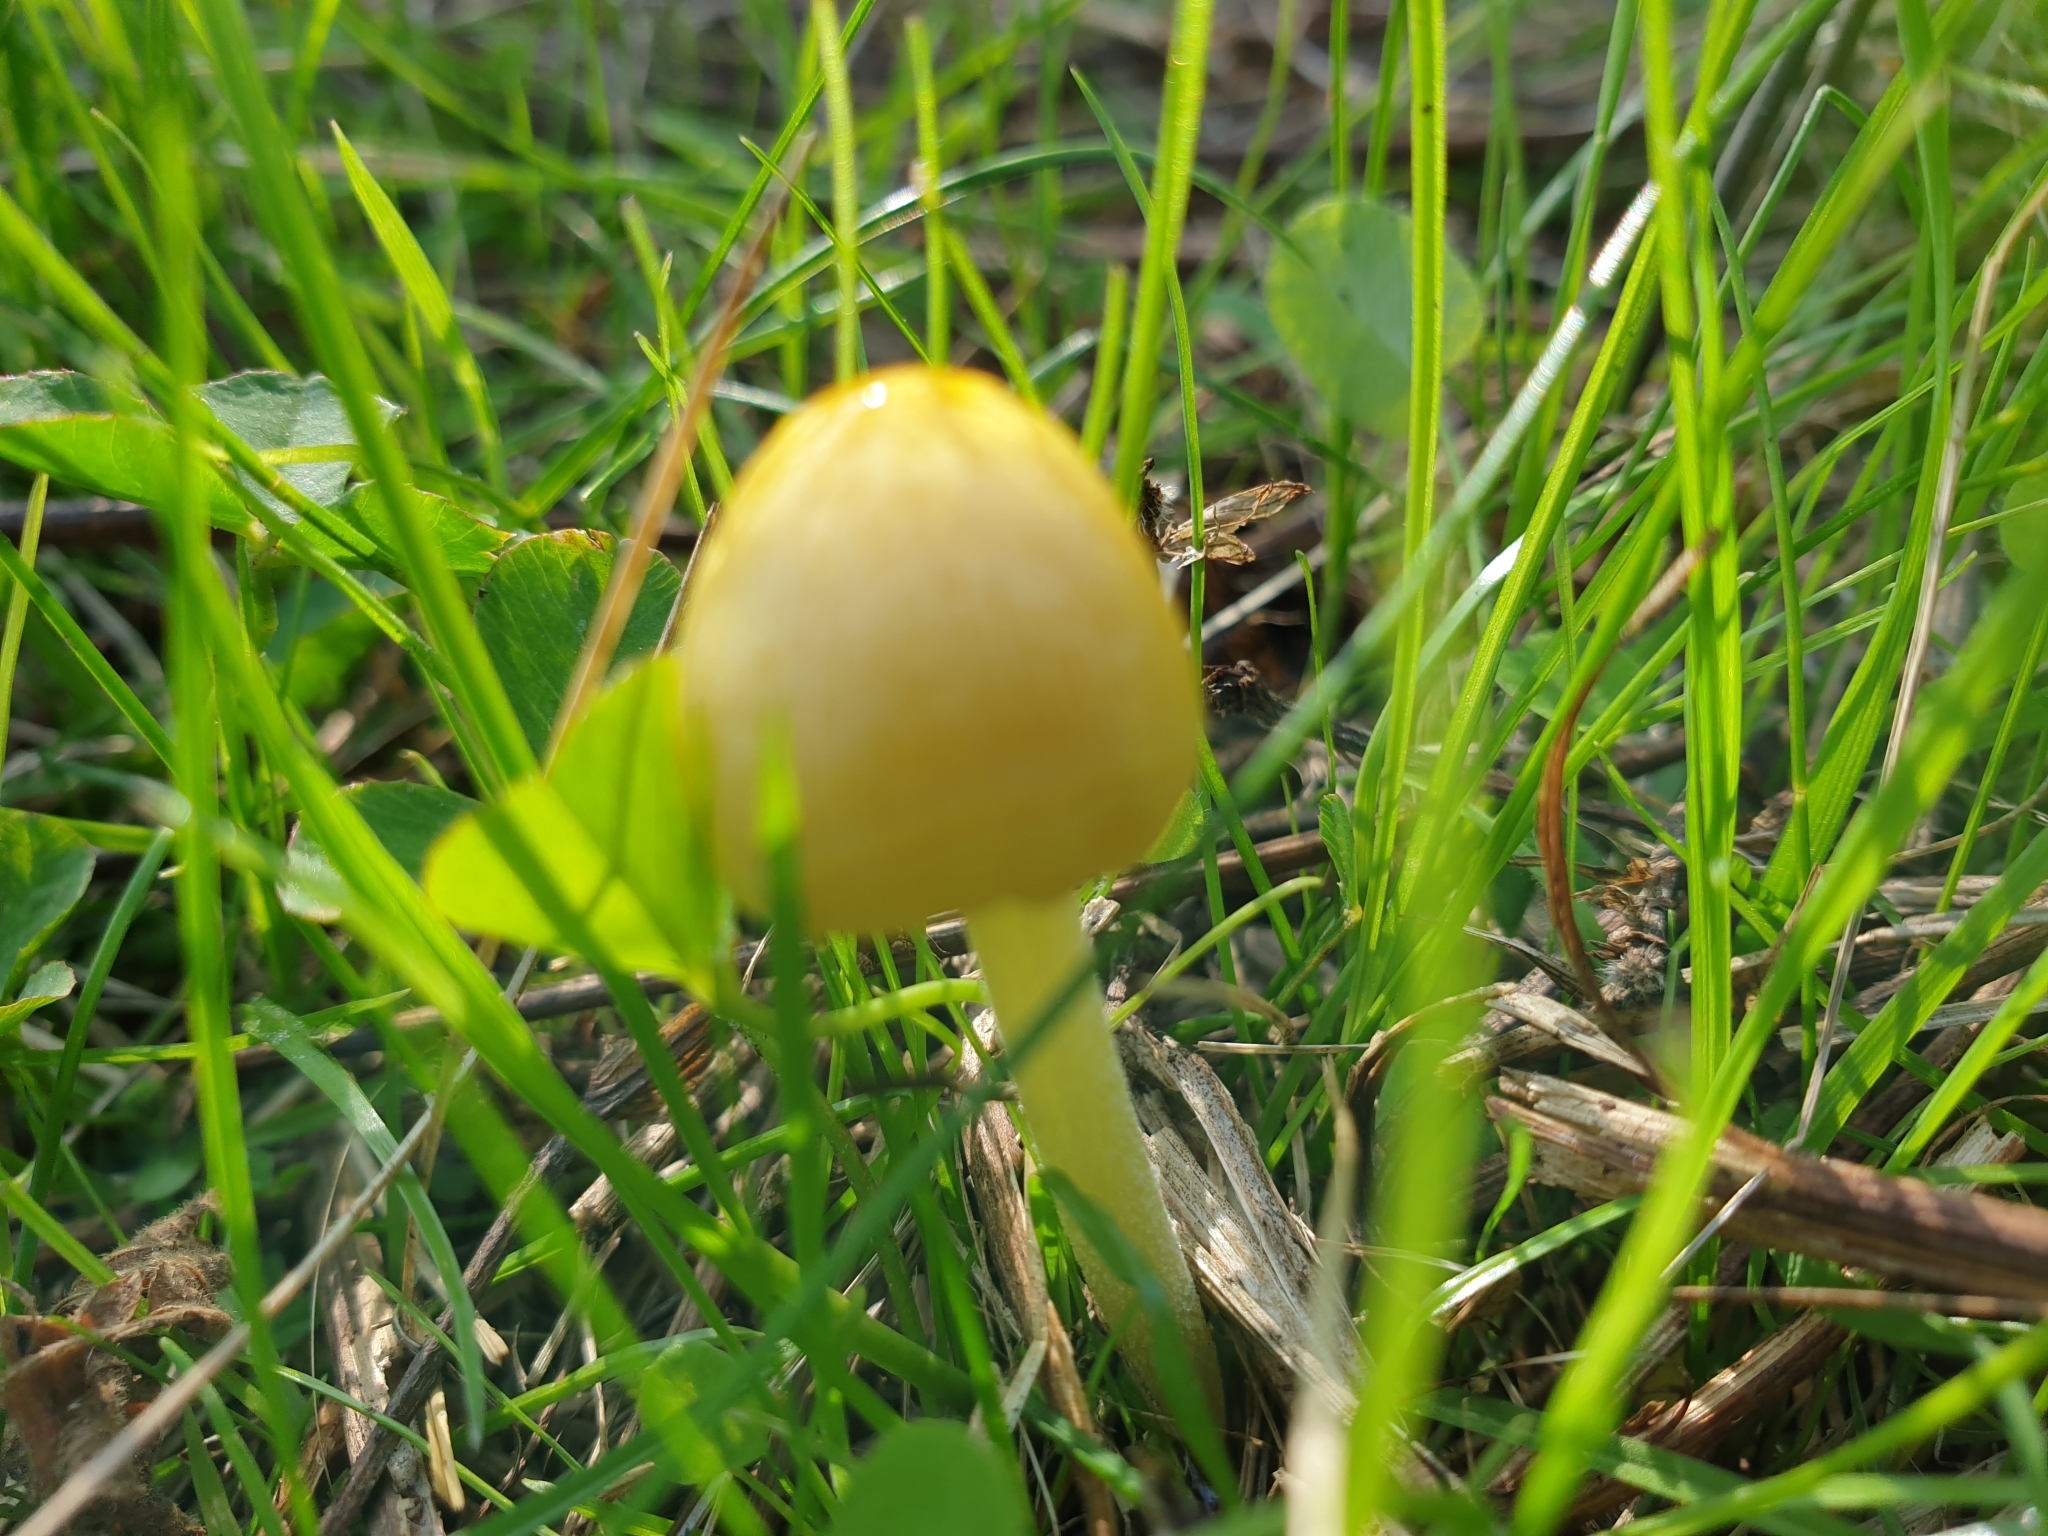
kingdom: Fungi
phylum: Basidiomycota
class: Agaricomycetes
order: Agaricales
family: Bolbitiaceae
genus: Bolbitius
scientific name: Bolbitius titubans
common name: Yellow fieldcap
